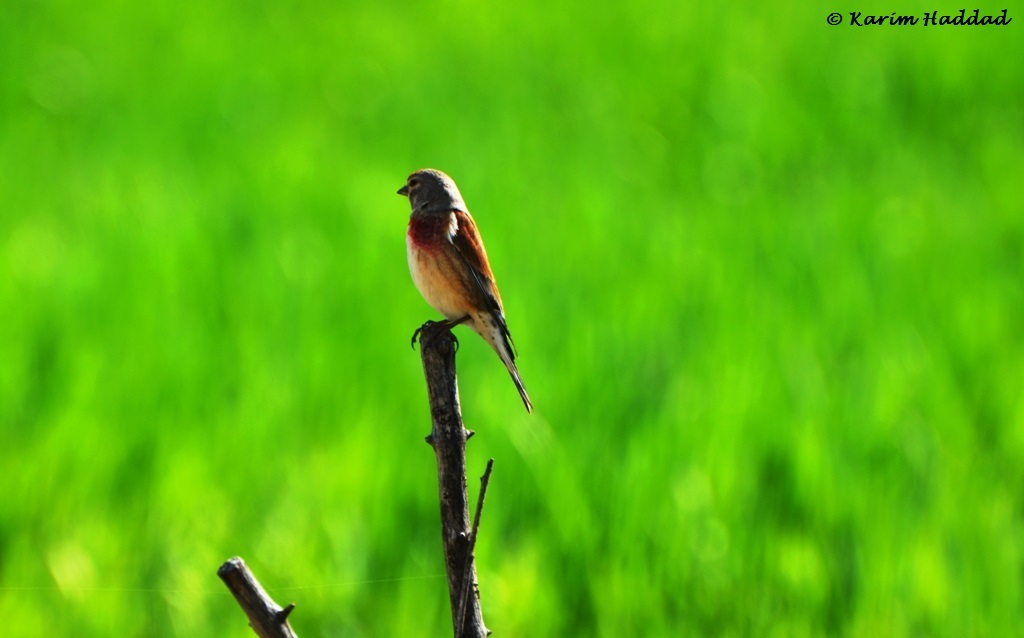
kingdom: Animalia
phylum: Chordata
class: Aves
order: Passeriformes
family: Fringillidae
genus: Linaria
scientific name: Linaria cannabina
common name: Common linnet
